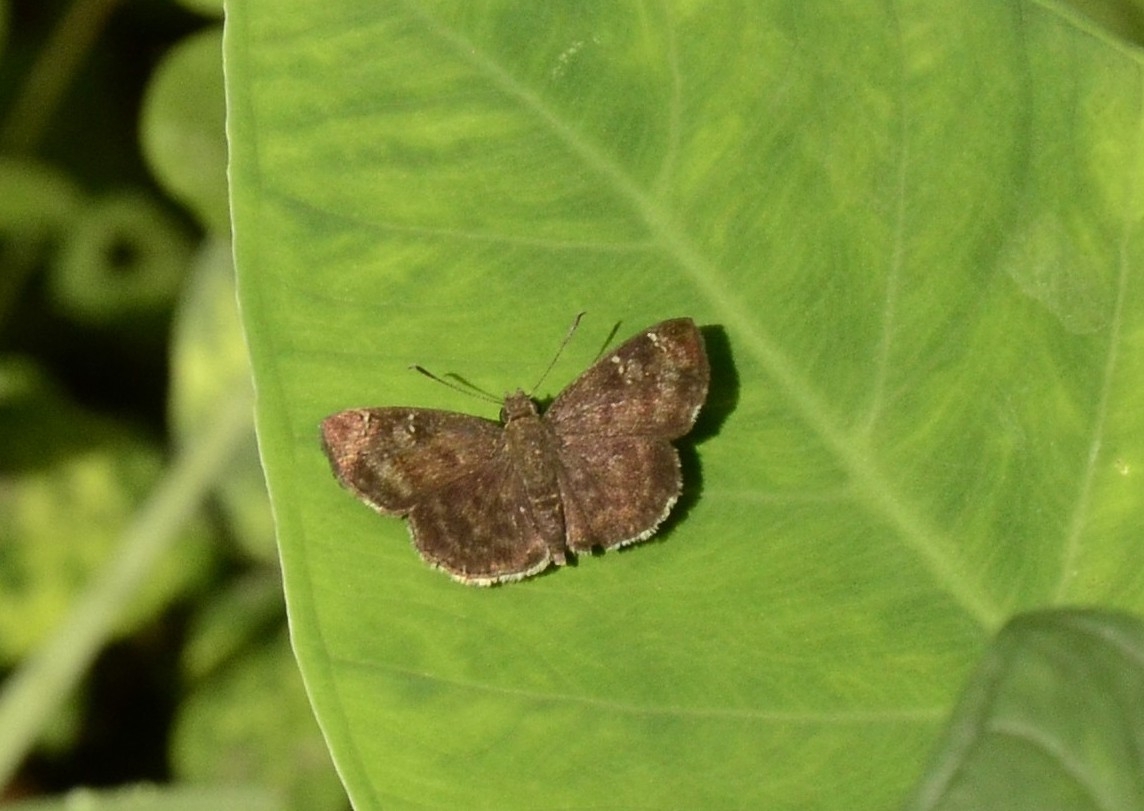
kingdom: Animalia
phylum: Arthropoda
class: Insecta
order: Lepidoptera
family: Hesperiidae
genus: Sarangesa
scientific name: Sarangesa dasahara
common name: Common small flat
